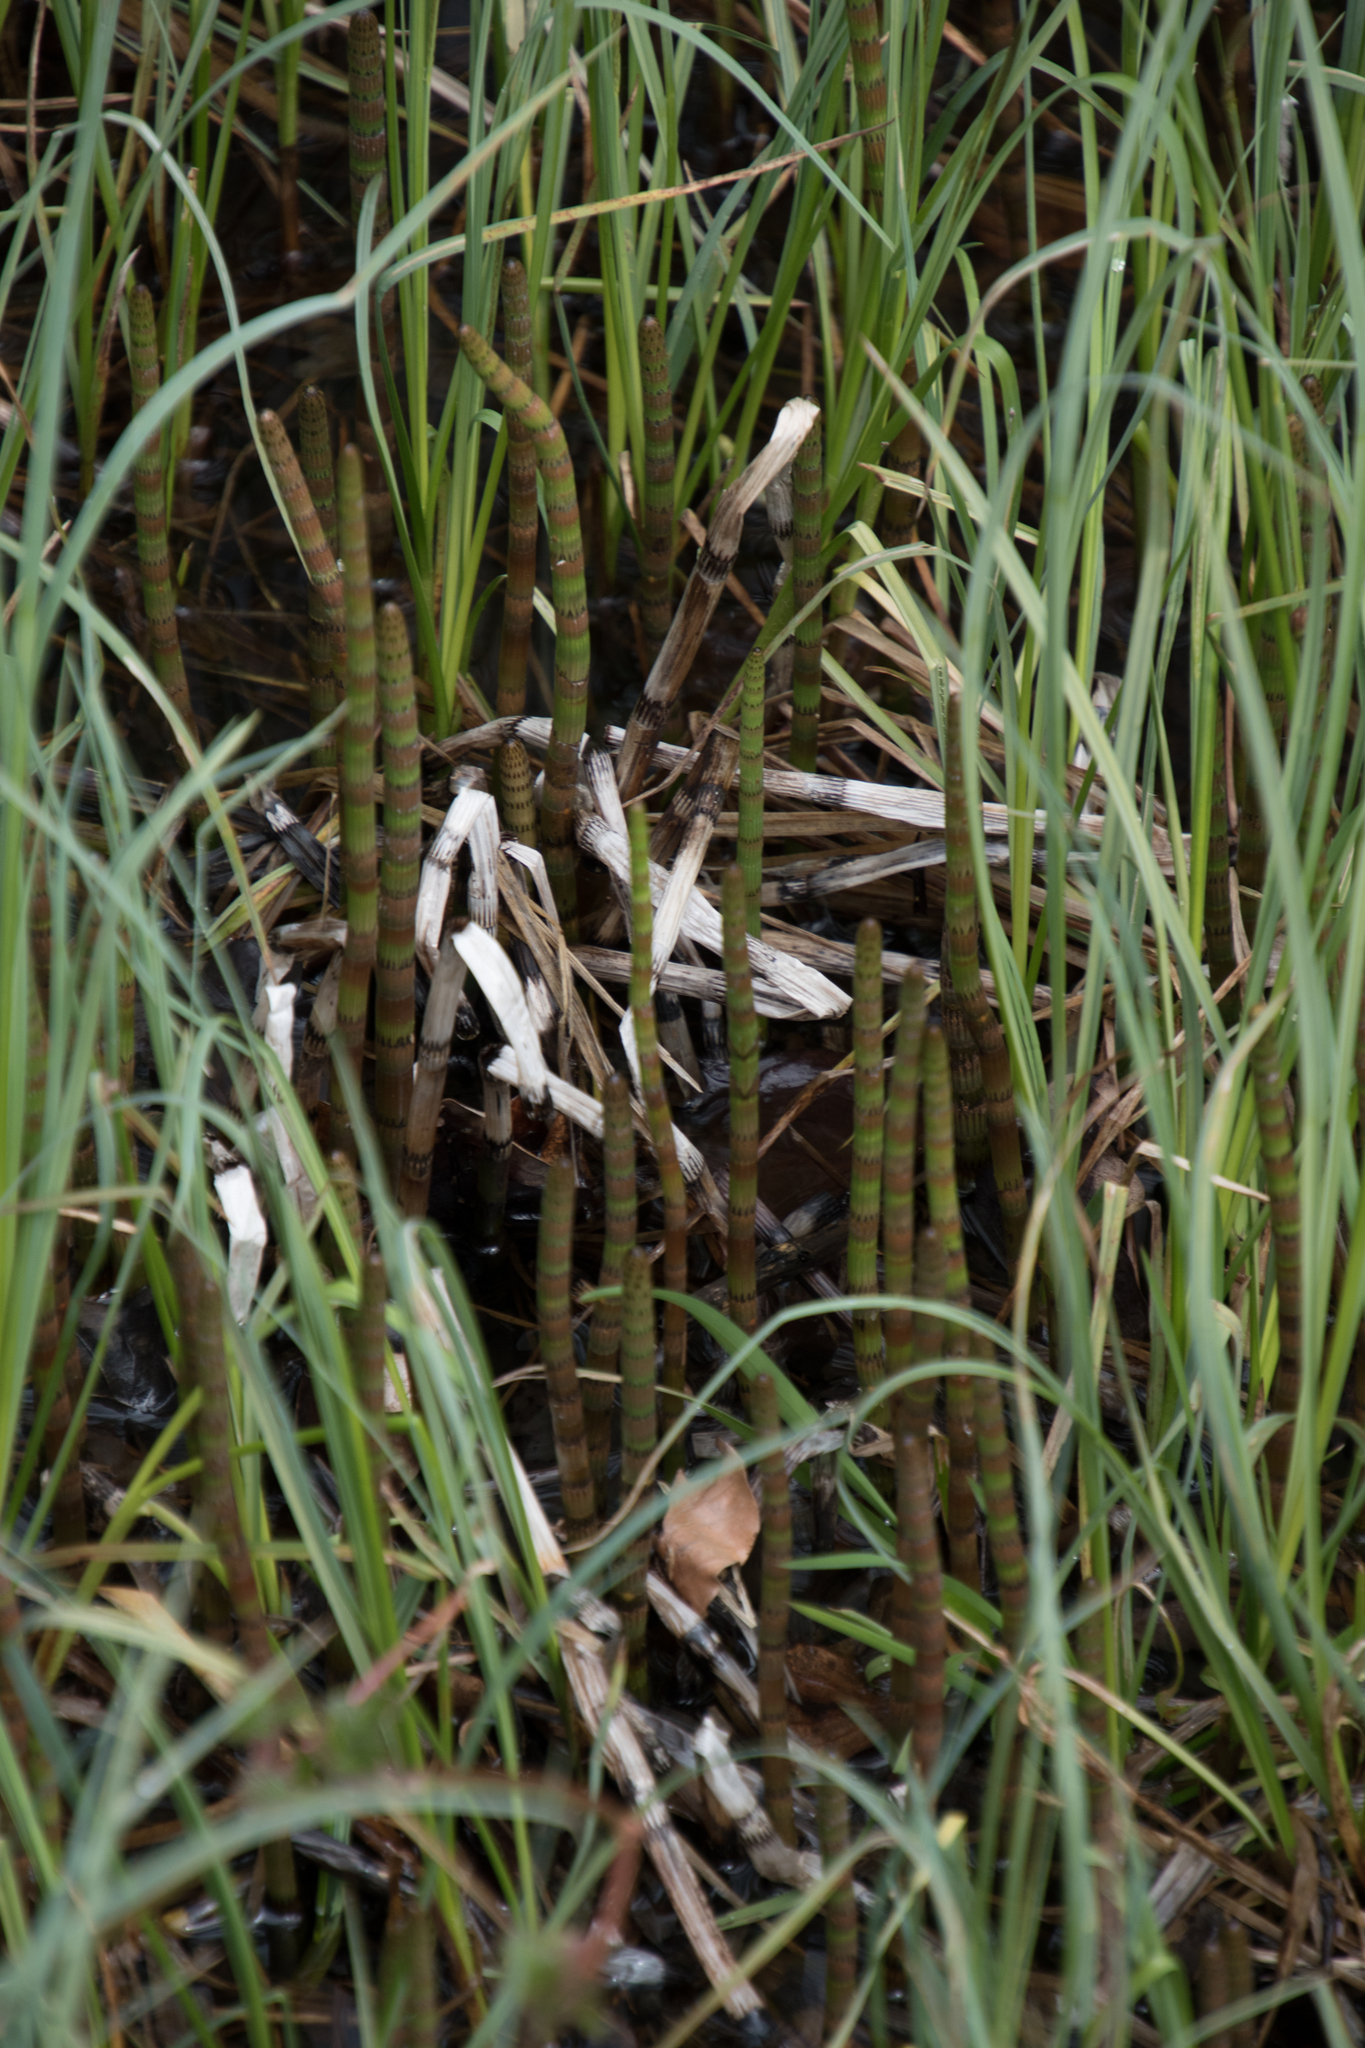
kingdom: Plantae
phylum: Tracheophyta
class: Polypodiopsida
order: Equisetales
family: Equisetaceae
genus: Equisetum
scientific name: Equisetum fluviatile
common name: Water horsetail
